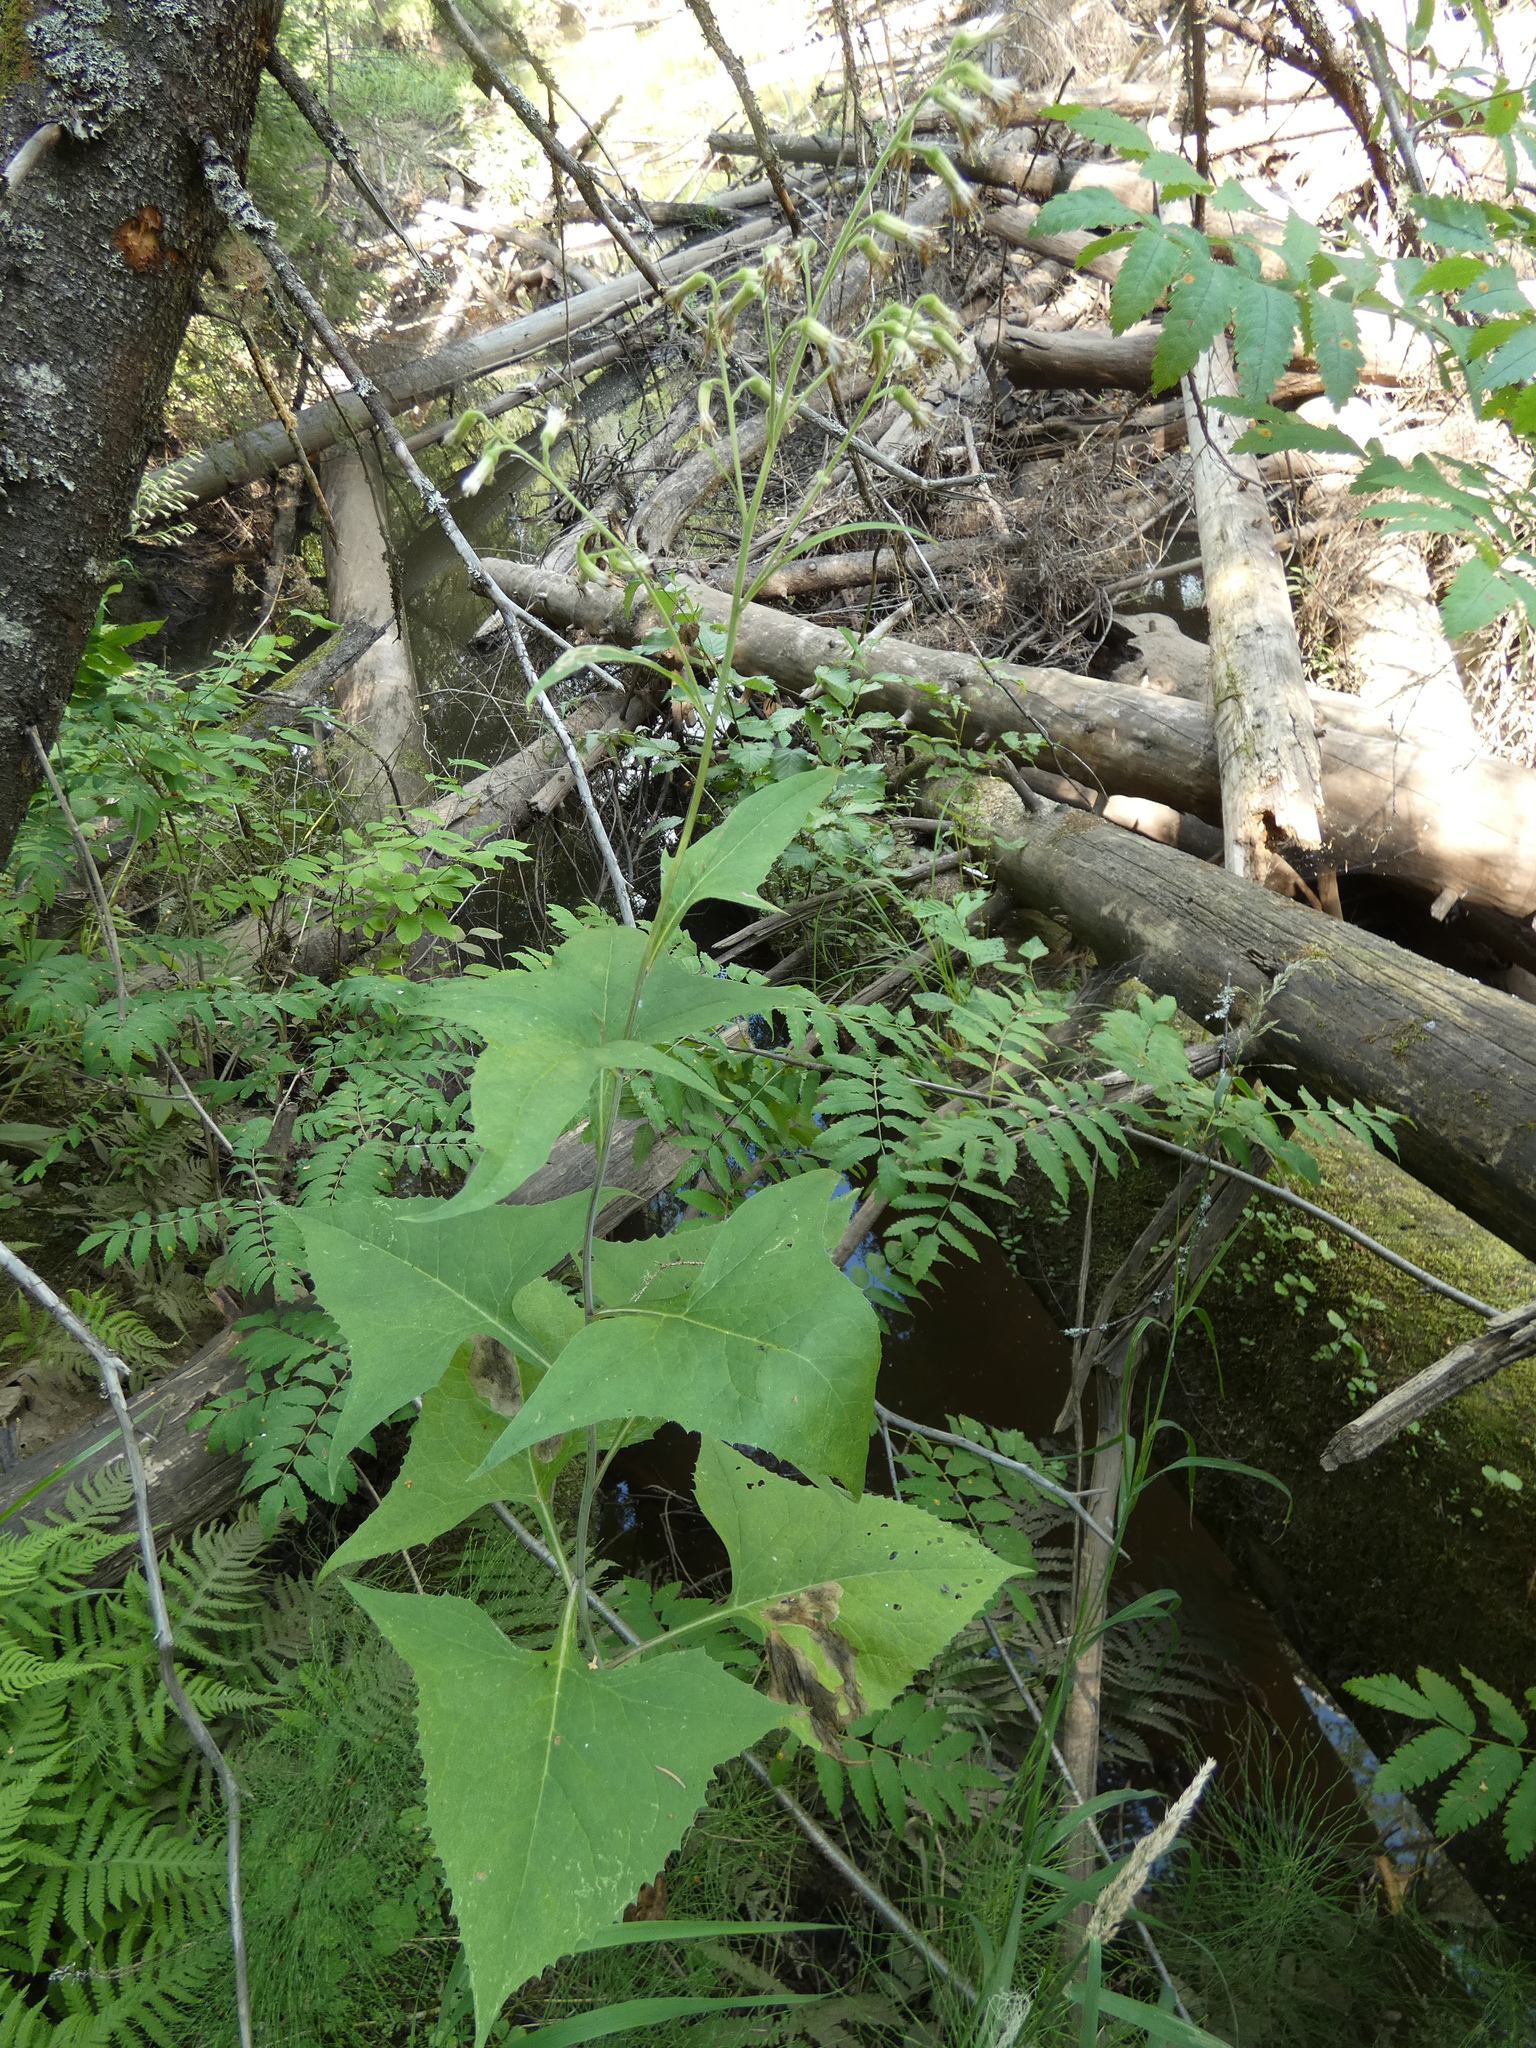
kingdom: Plantae
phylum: Tracheophyta
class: Magnoliopsida
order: Asterales
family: Asteraceae
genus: Parasenecio
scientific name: Parasenecio hastatus
